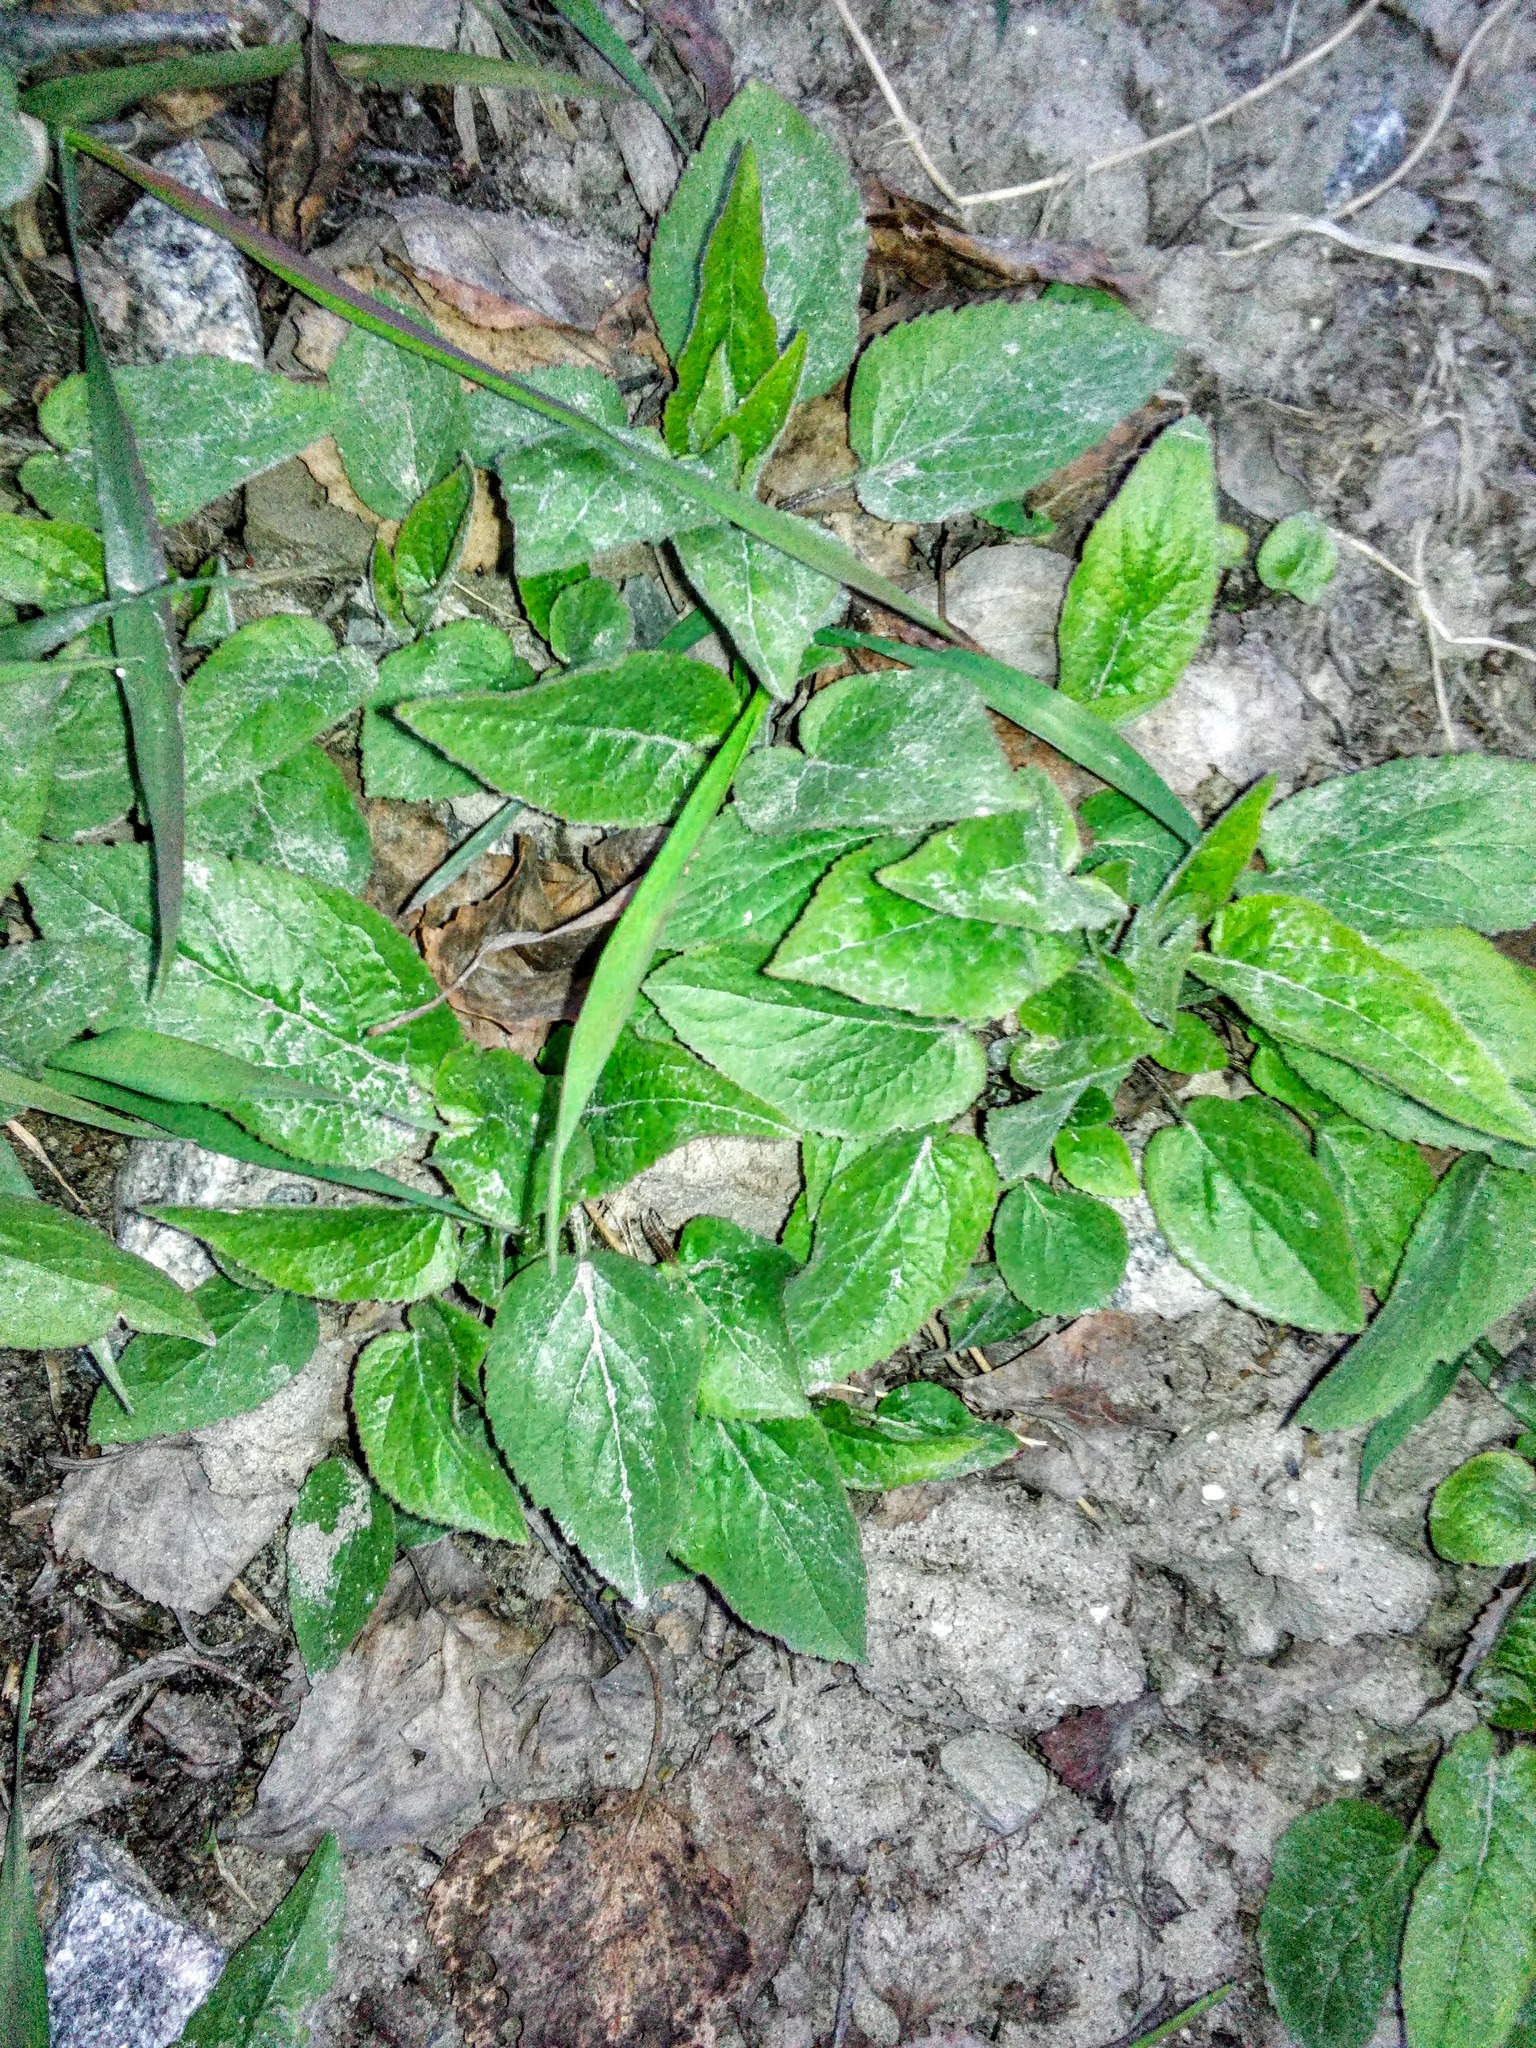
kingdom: Plantae
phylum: Tracheophyta
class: Magnoliopsida
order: Asterales
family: Campanulaceae
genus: Campanula
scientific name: Campanula rapunculoides
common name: Creeping bellflower
